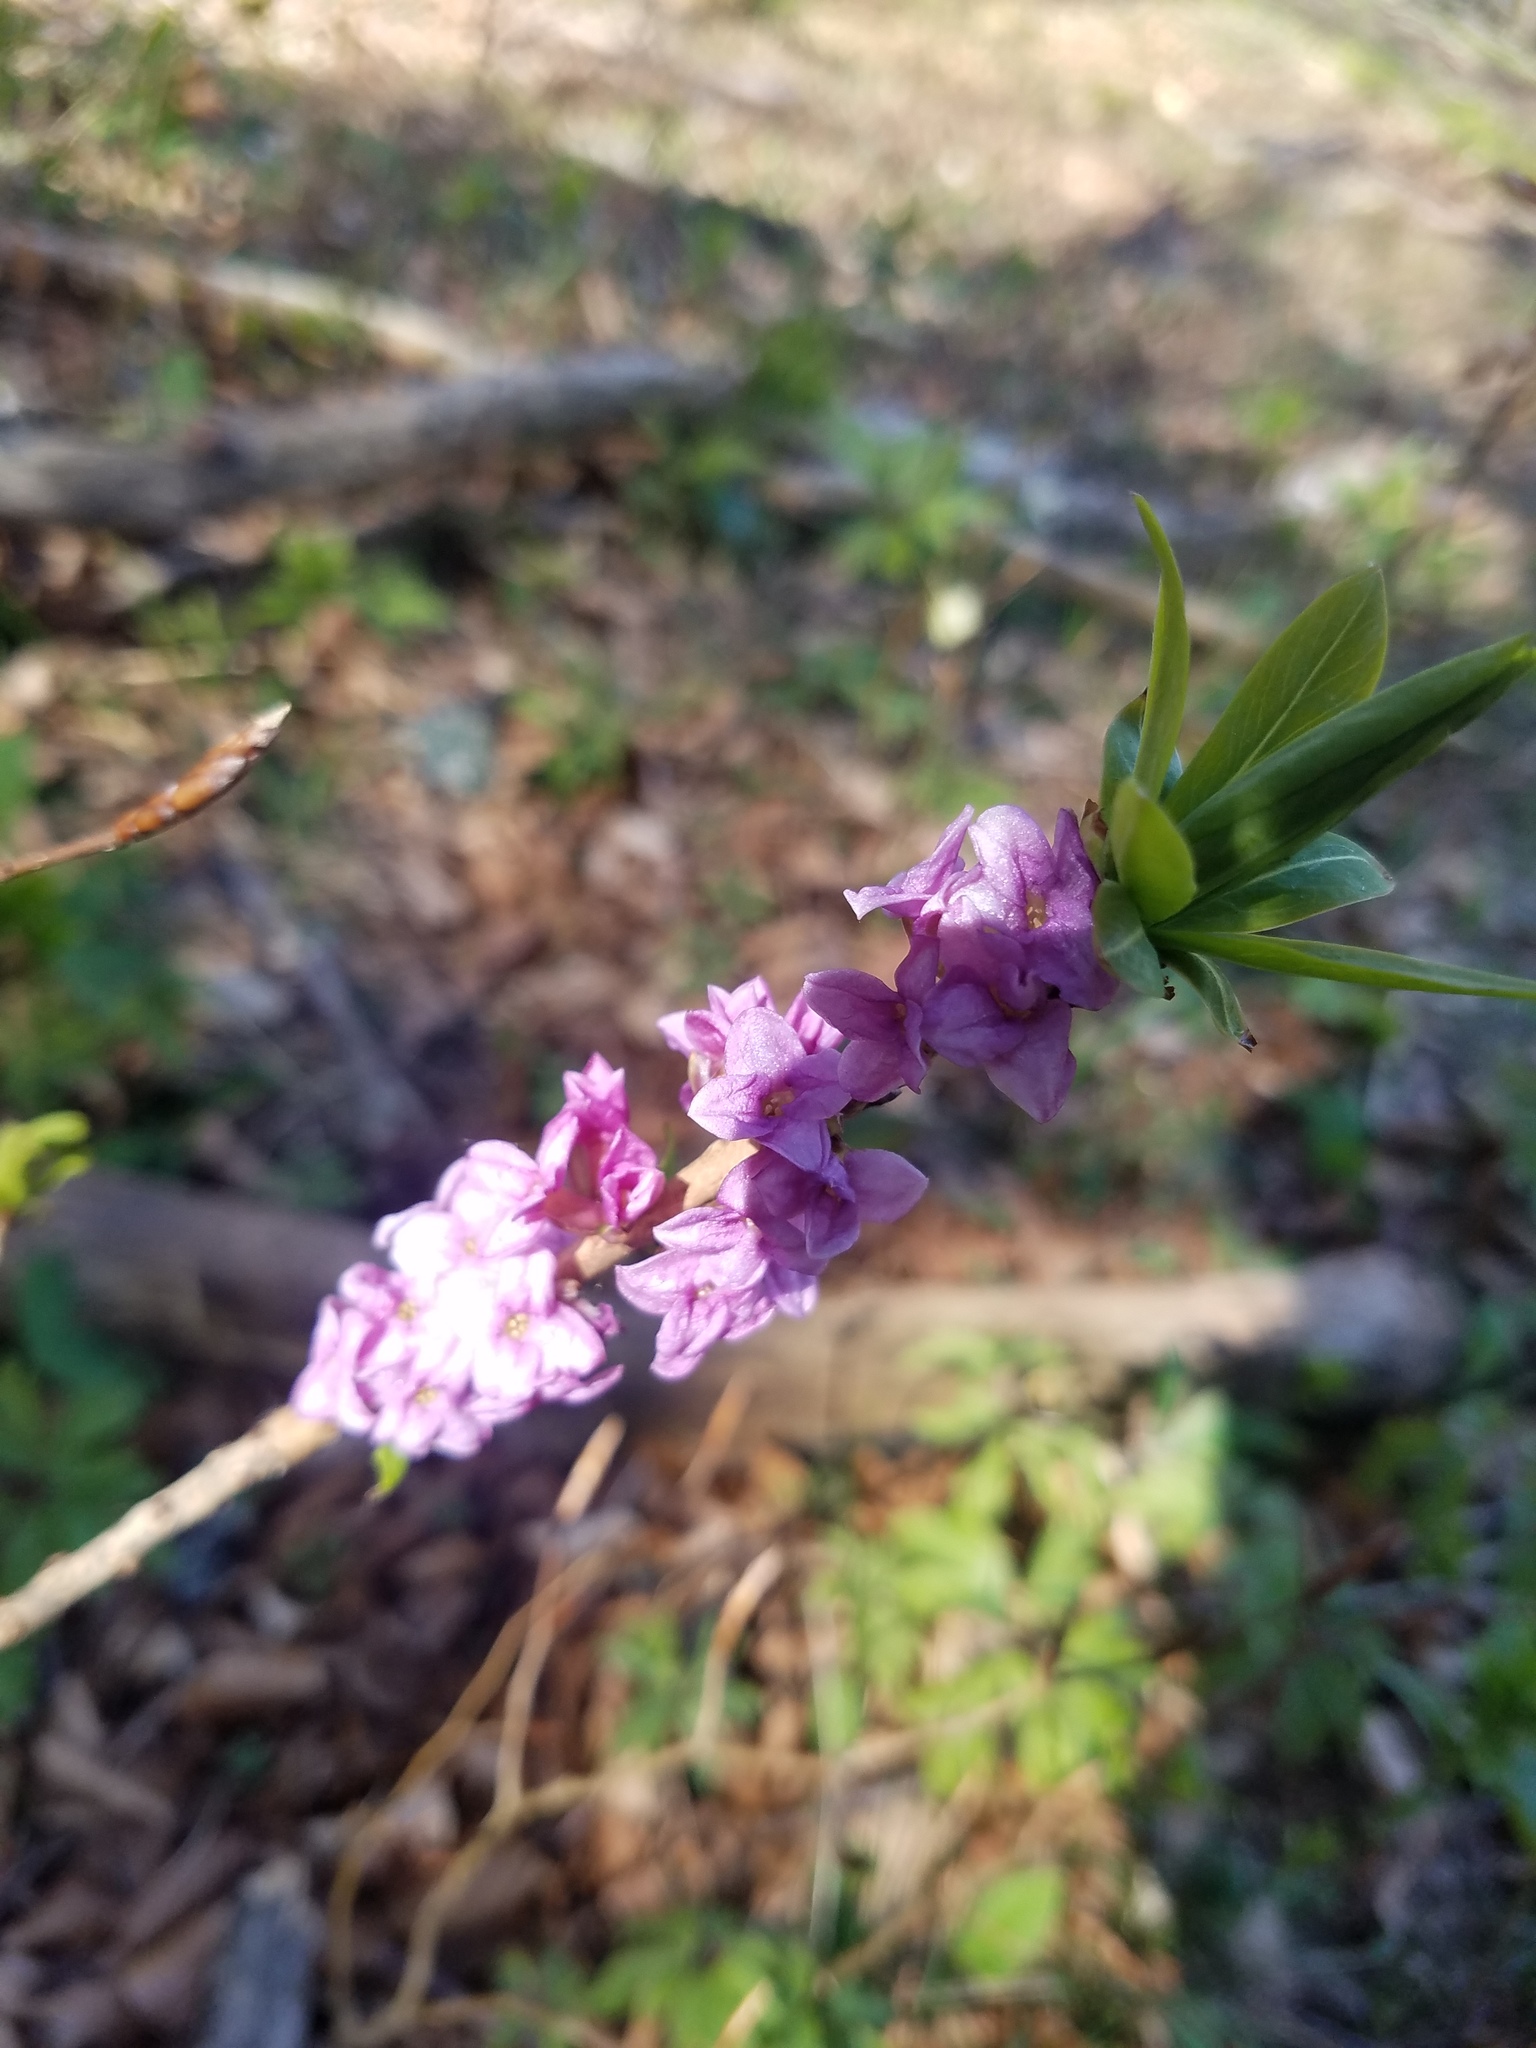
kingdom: Plantae
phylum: Tracheophyta
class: Magnoliopsida
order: Malvales
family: Thymelaeaceae
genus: Daphne
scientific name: Daphne mezereum
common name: Mezereon
